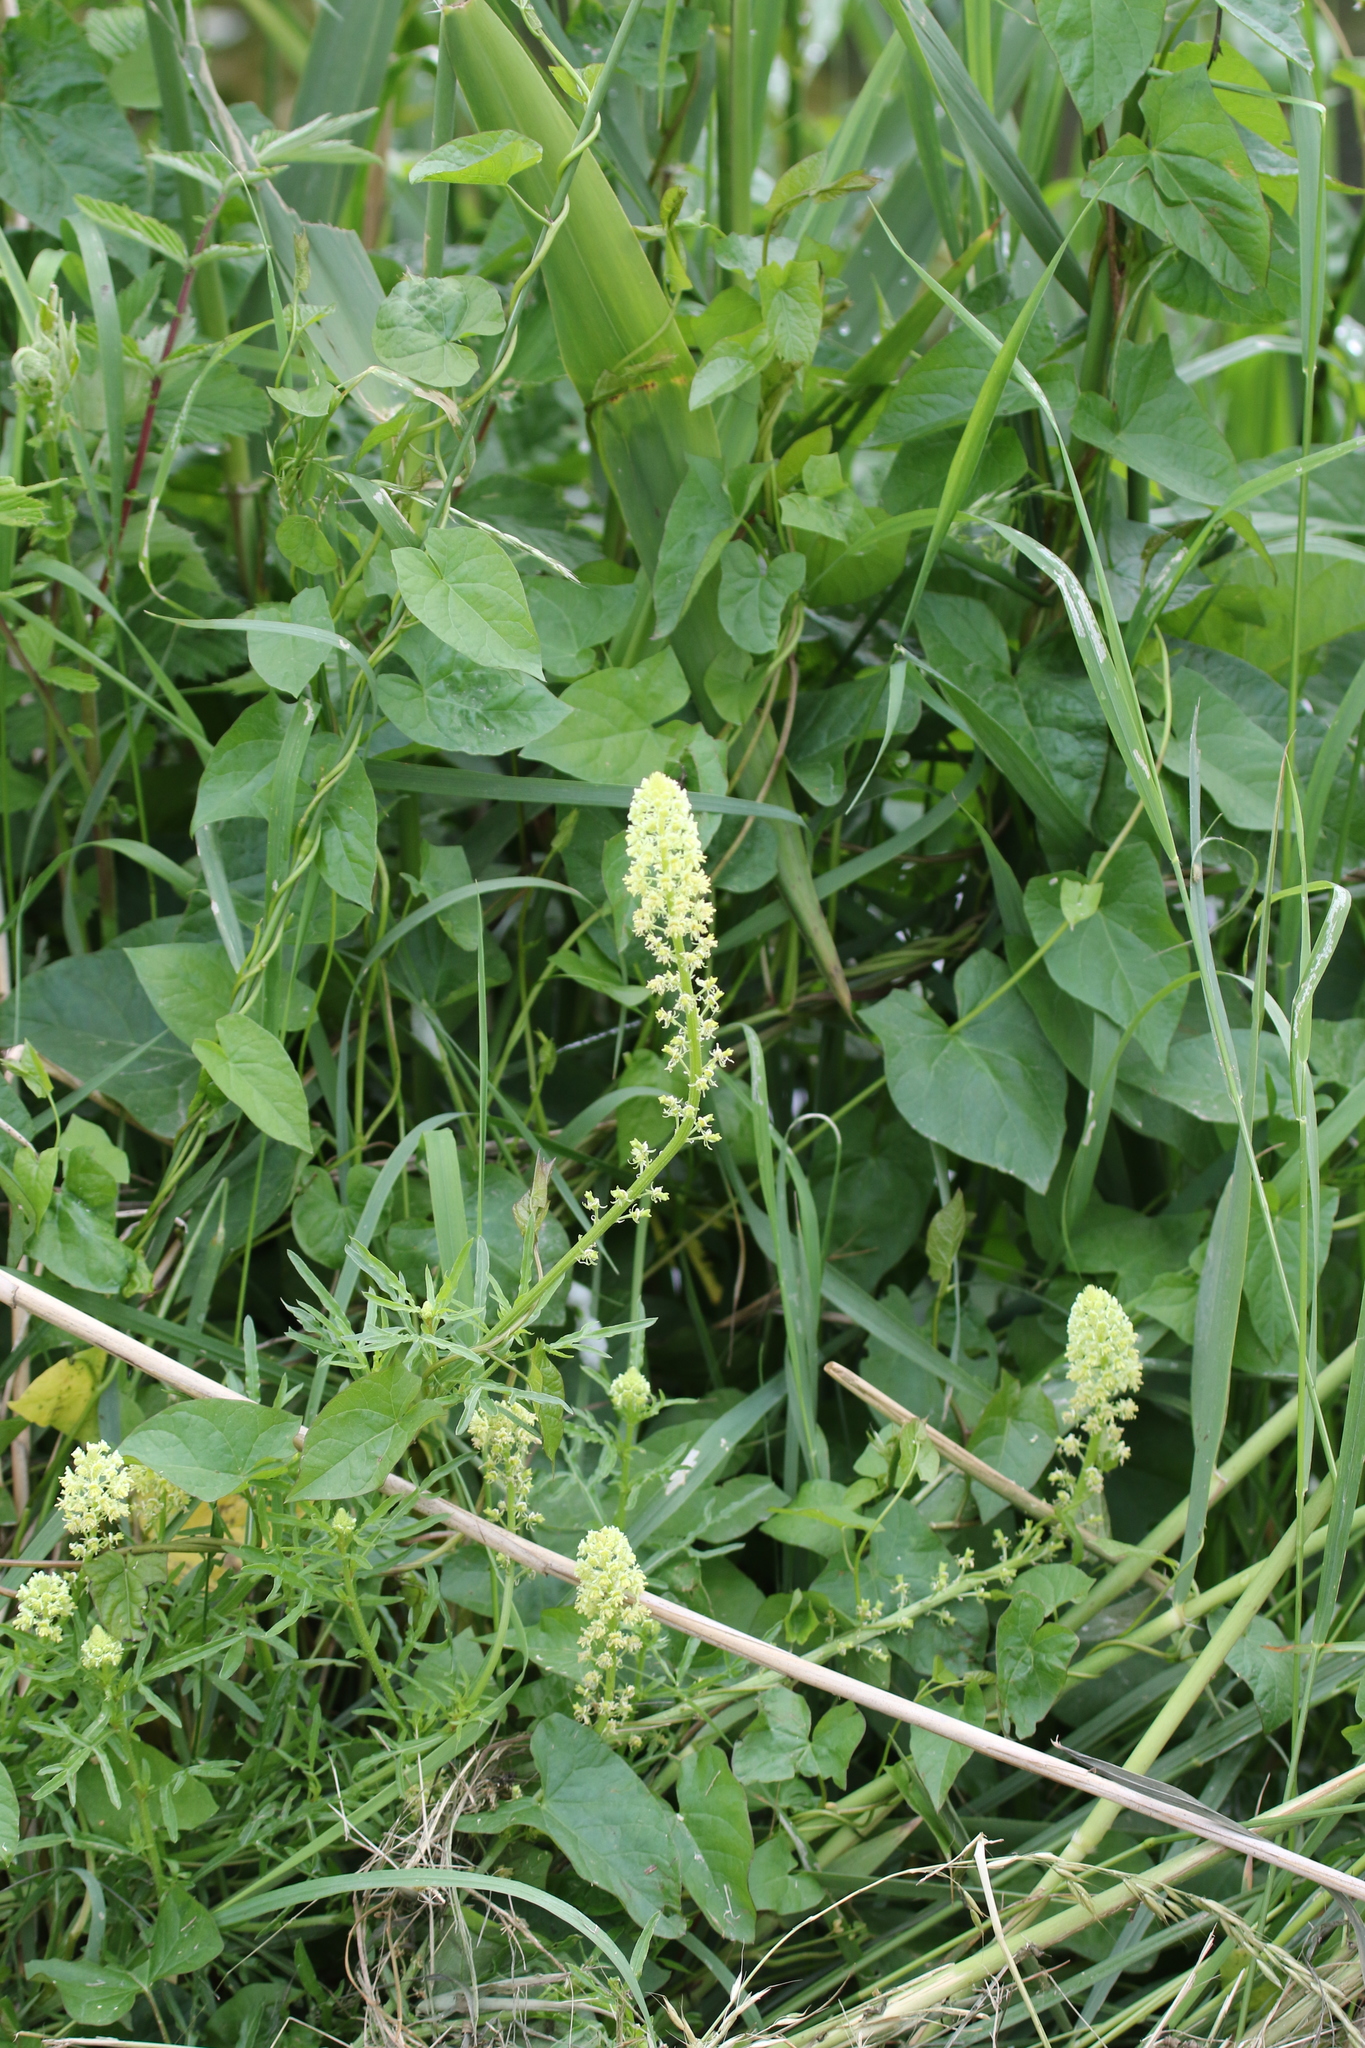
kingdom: Plantae
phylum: Tracheophyta
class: Magnoliopsida
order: Brassicales
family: Resedaceae
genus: Reseda
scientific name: Reseda lutea
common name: Wild mignonette
